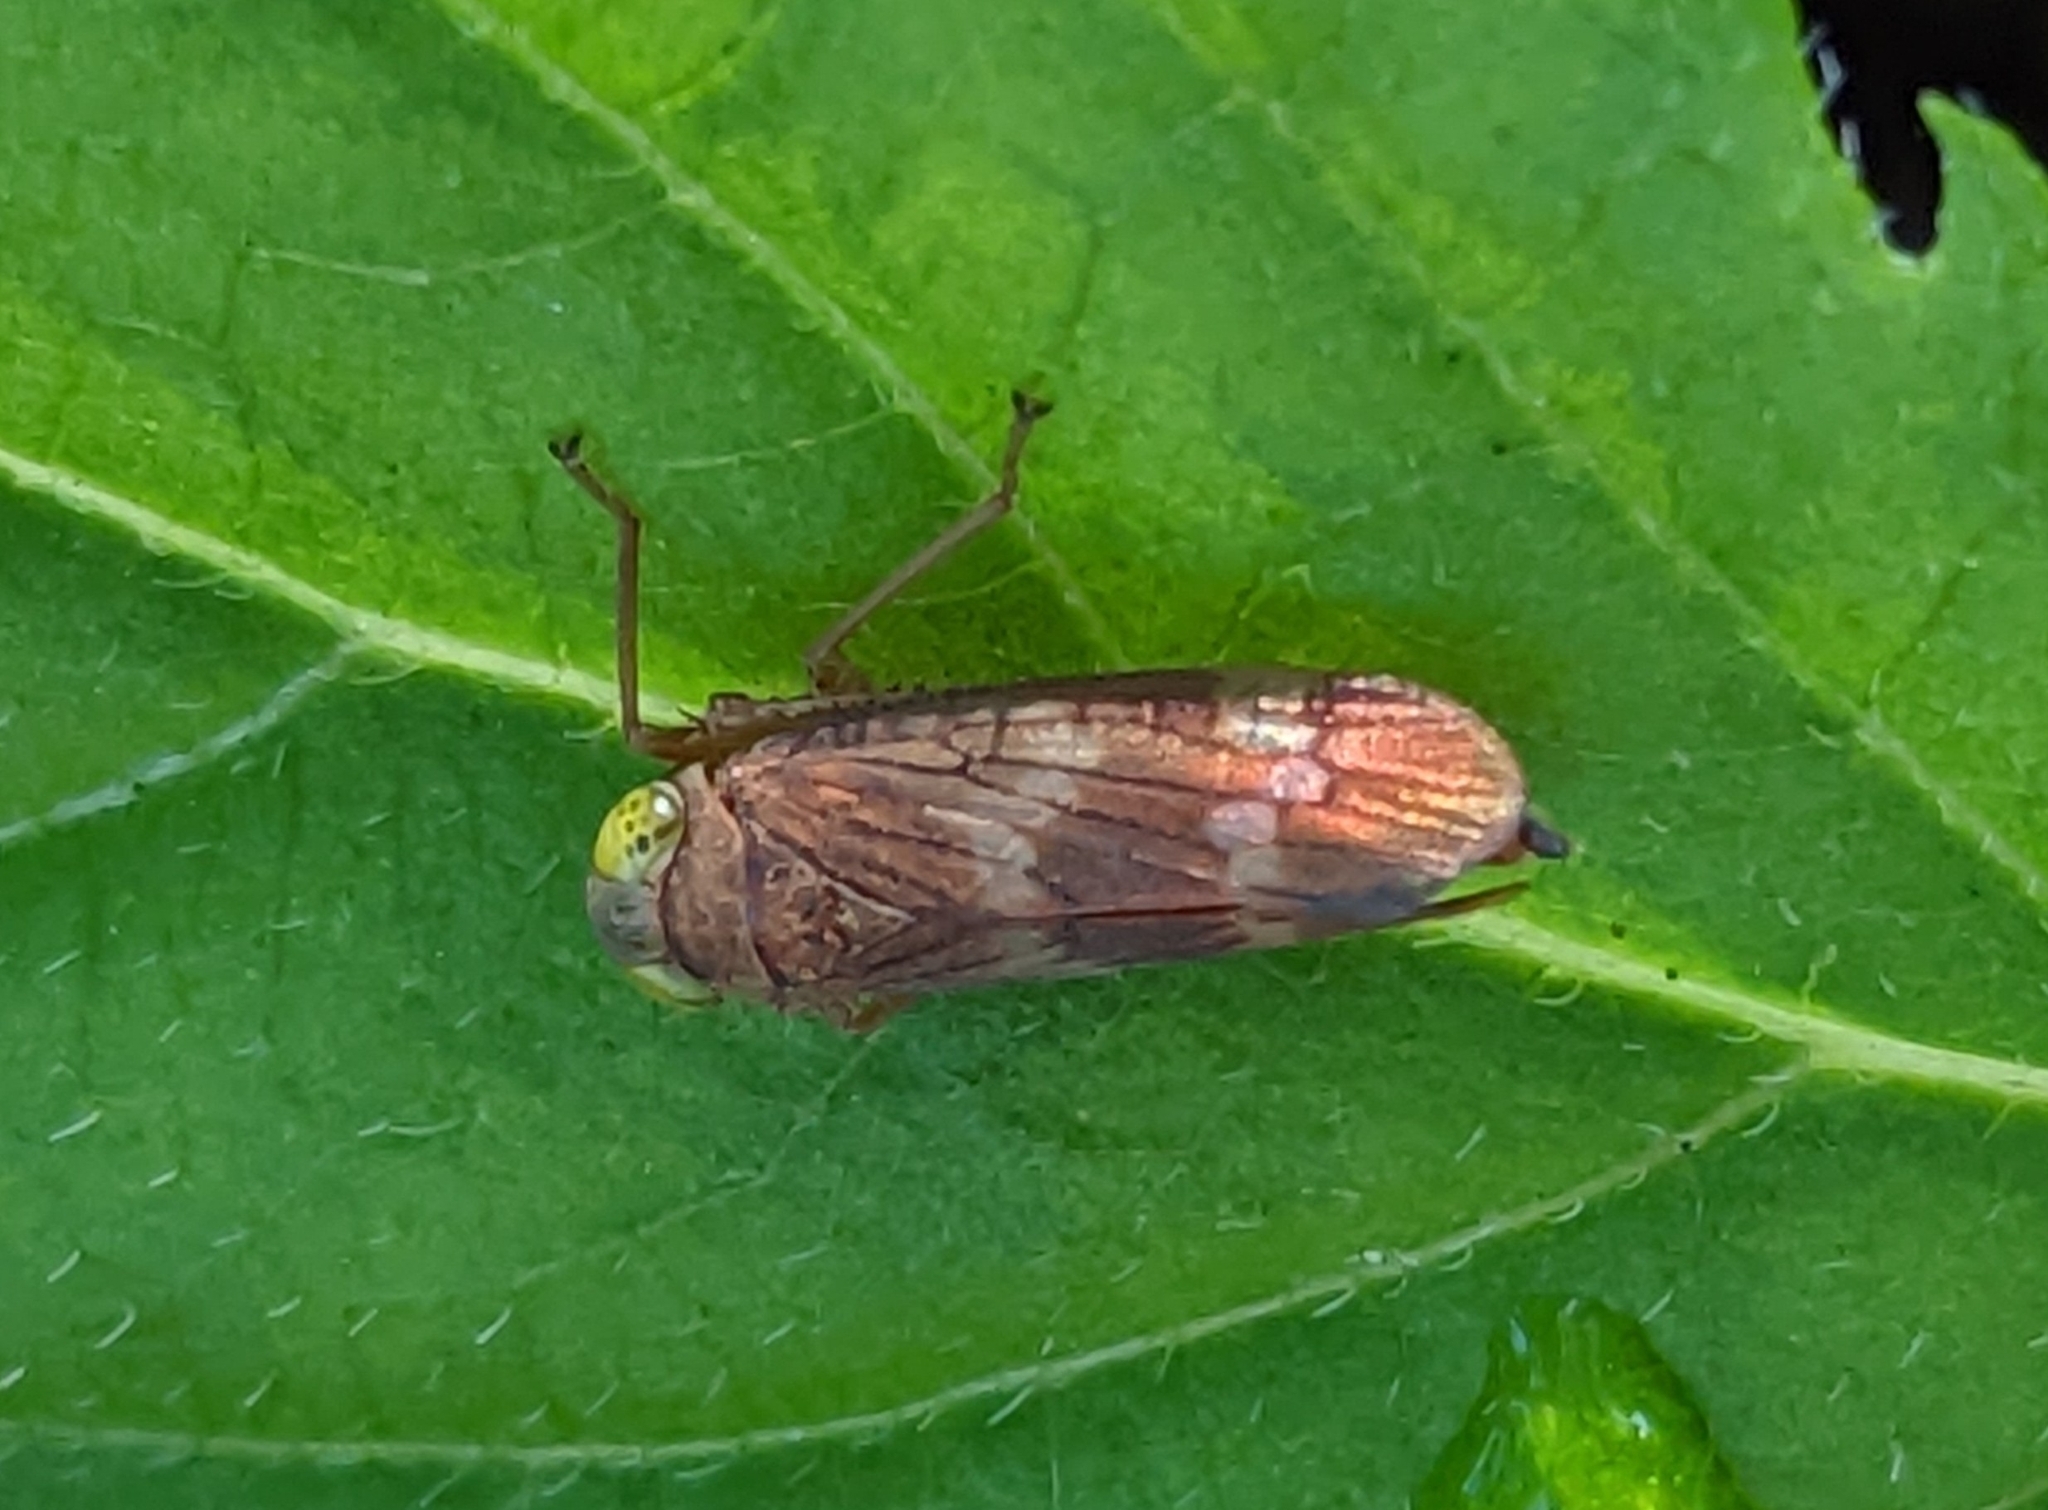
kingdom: Animalia
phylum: Arthropoda
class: Insecta
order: Hemiptera
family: Cicadellidae
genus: Jikradia
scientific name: Jikradia olitoria
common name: Coppery leafhopper
